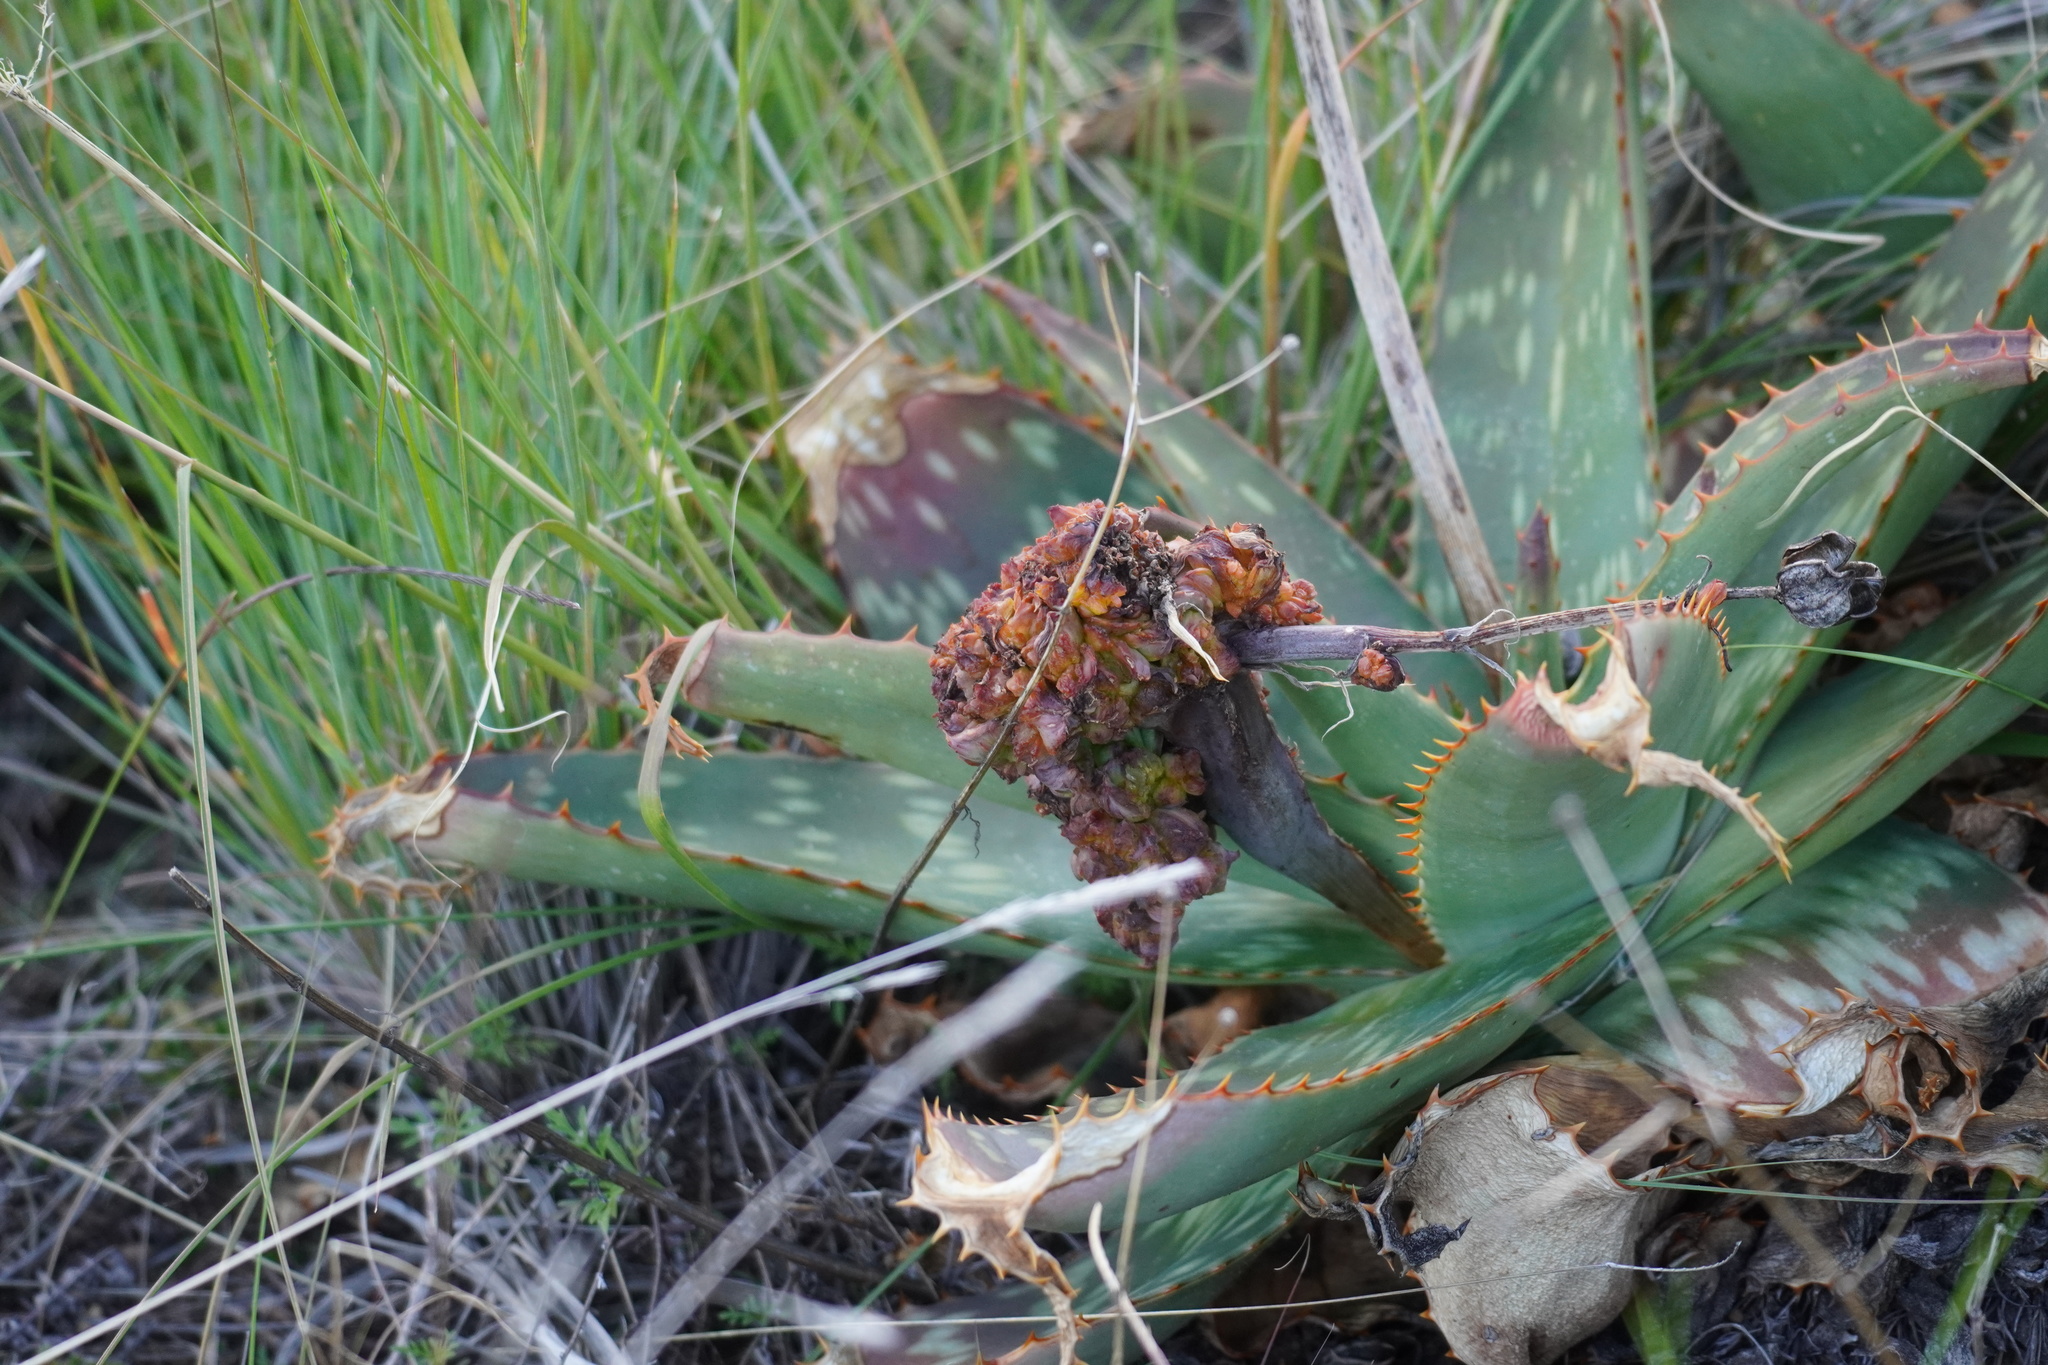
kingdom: Animalia
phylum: Arthropoda
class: Arachnida
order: Trombidiformes
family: Eriophyidae
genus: Aceria
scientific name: Aceria aloinis
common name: Mite
